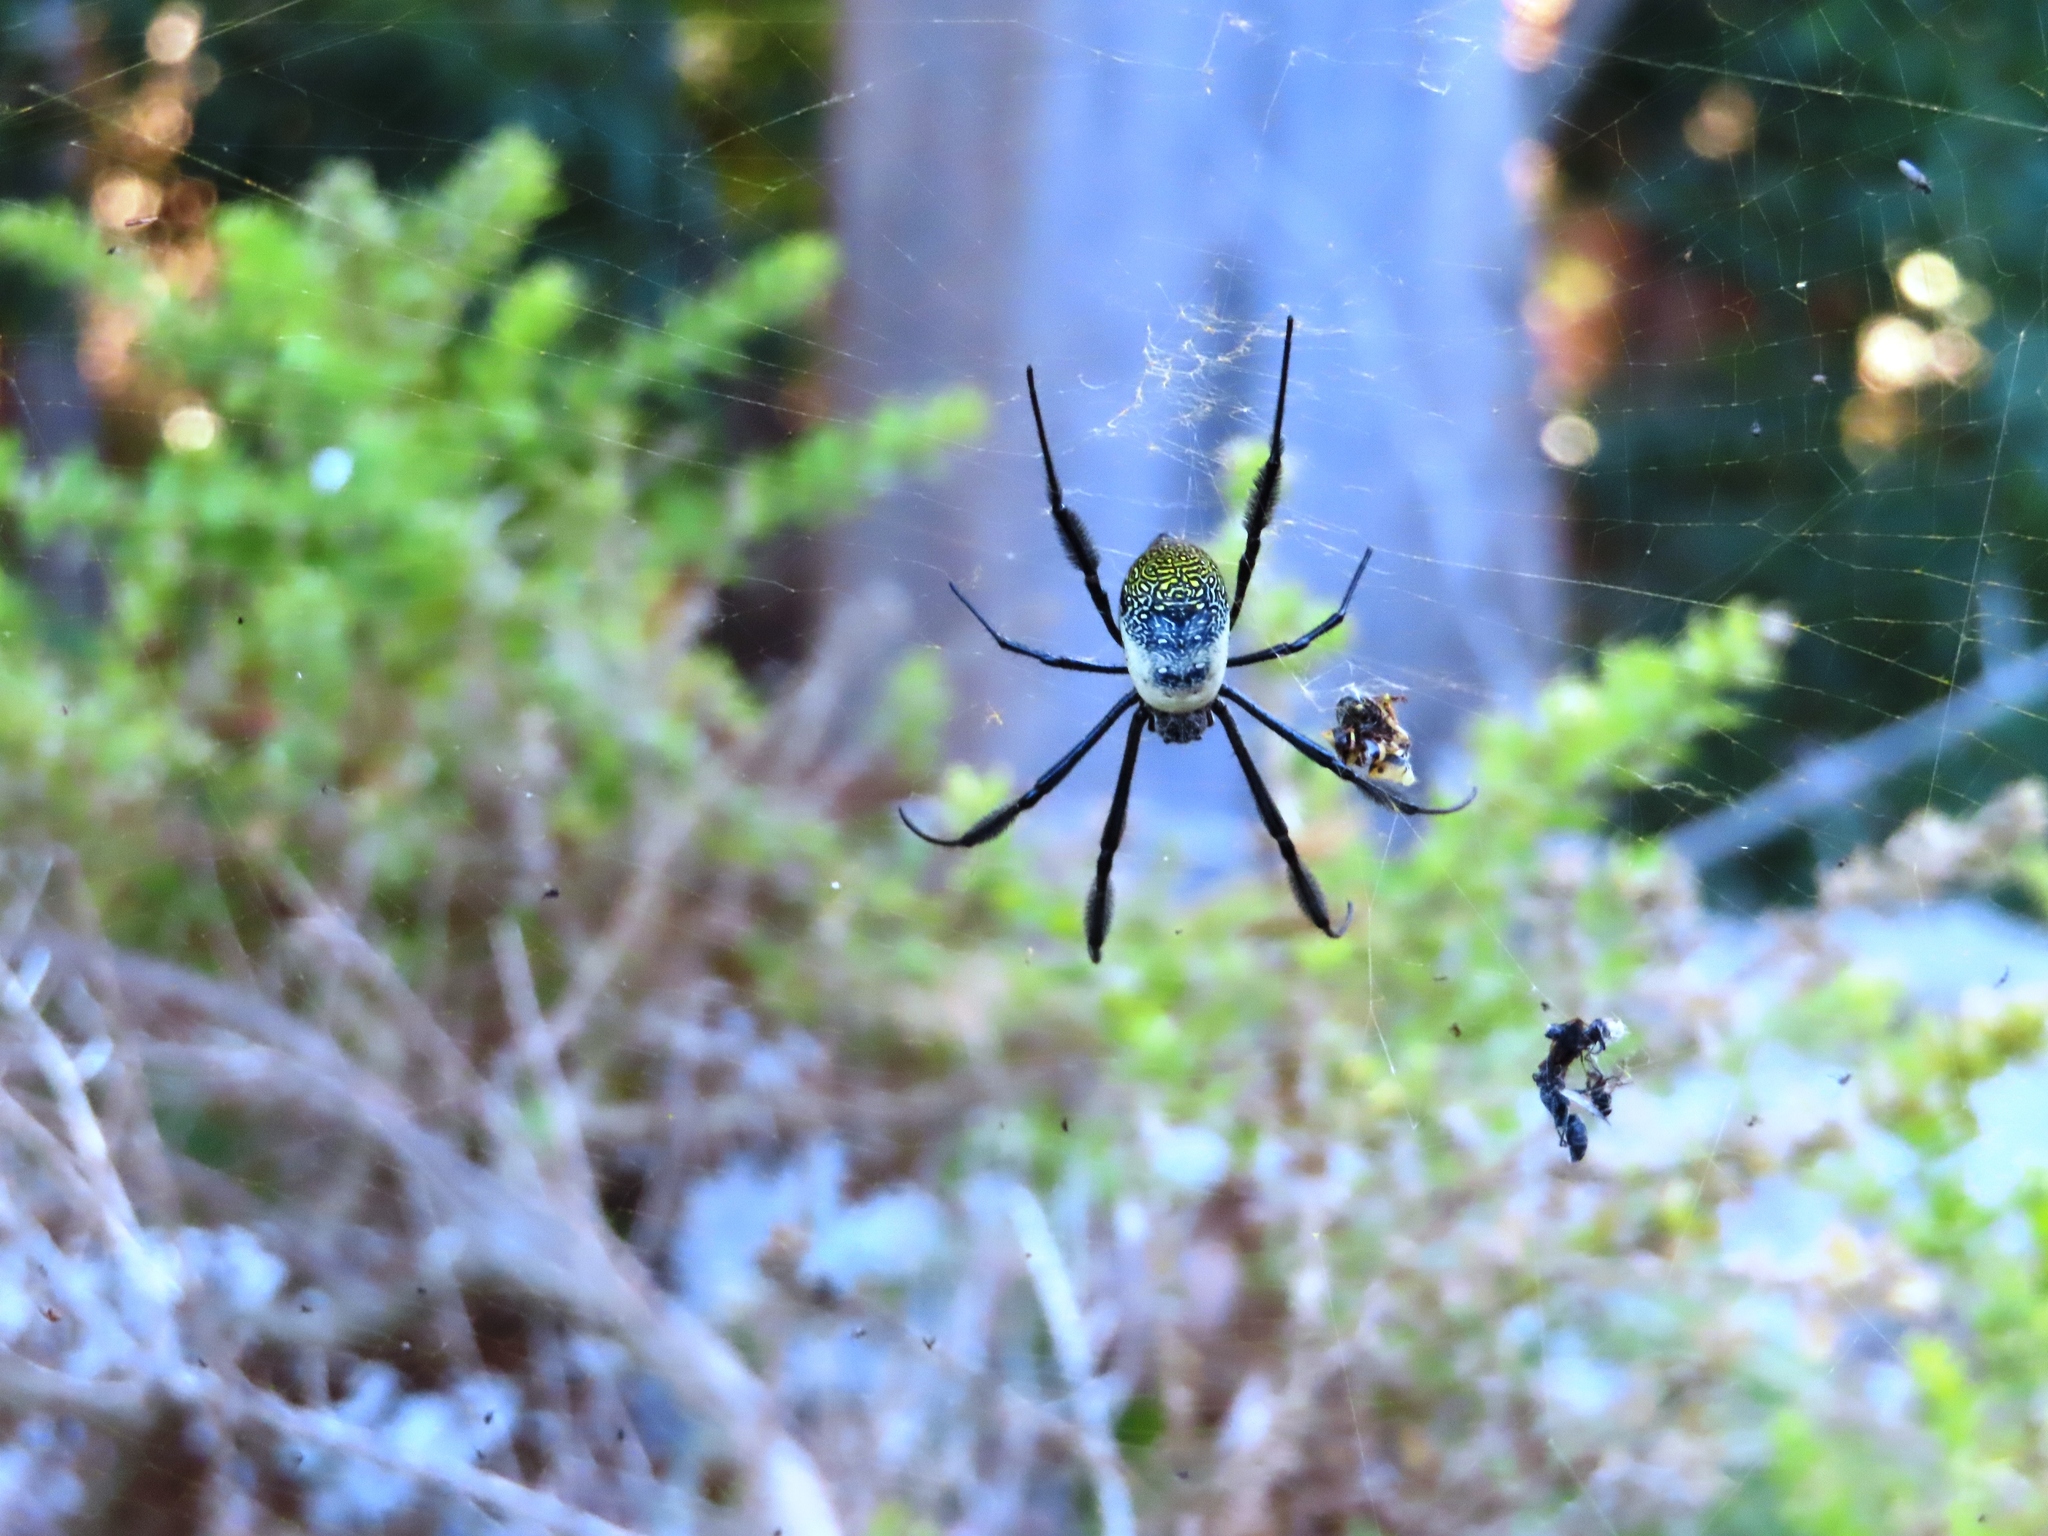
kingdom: Animalia
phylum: Arthropoda
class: Arachnida
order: Araneae
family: Araneidae
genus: Trichonephila
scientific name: Trichonephila fenestrata
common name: Hairy golden orb weaver
